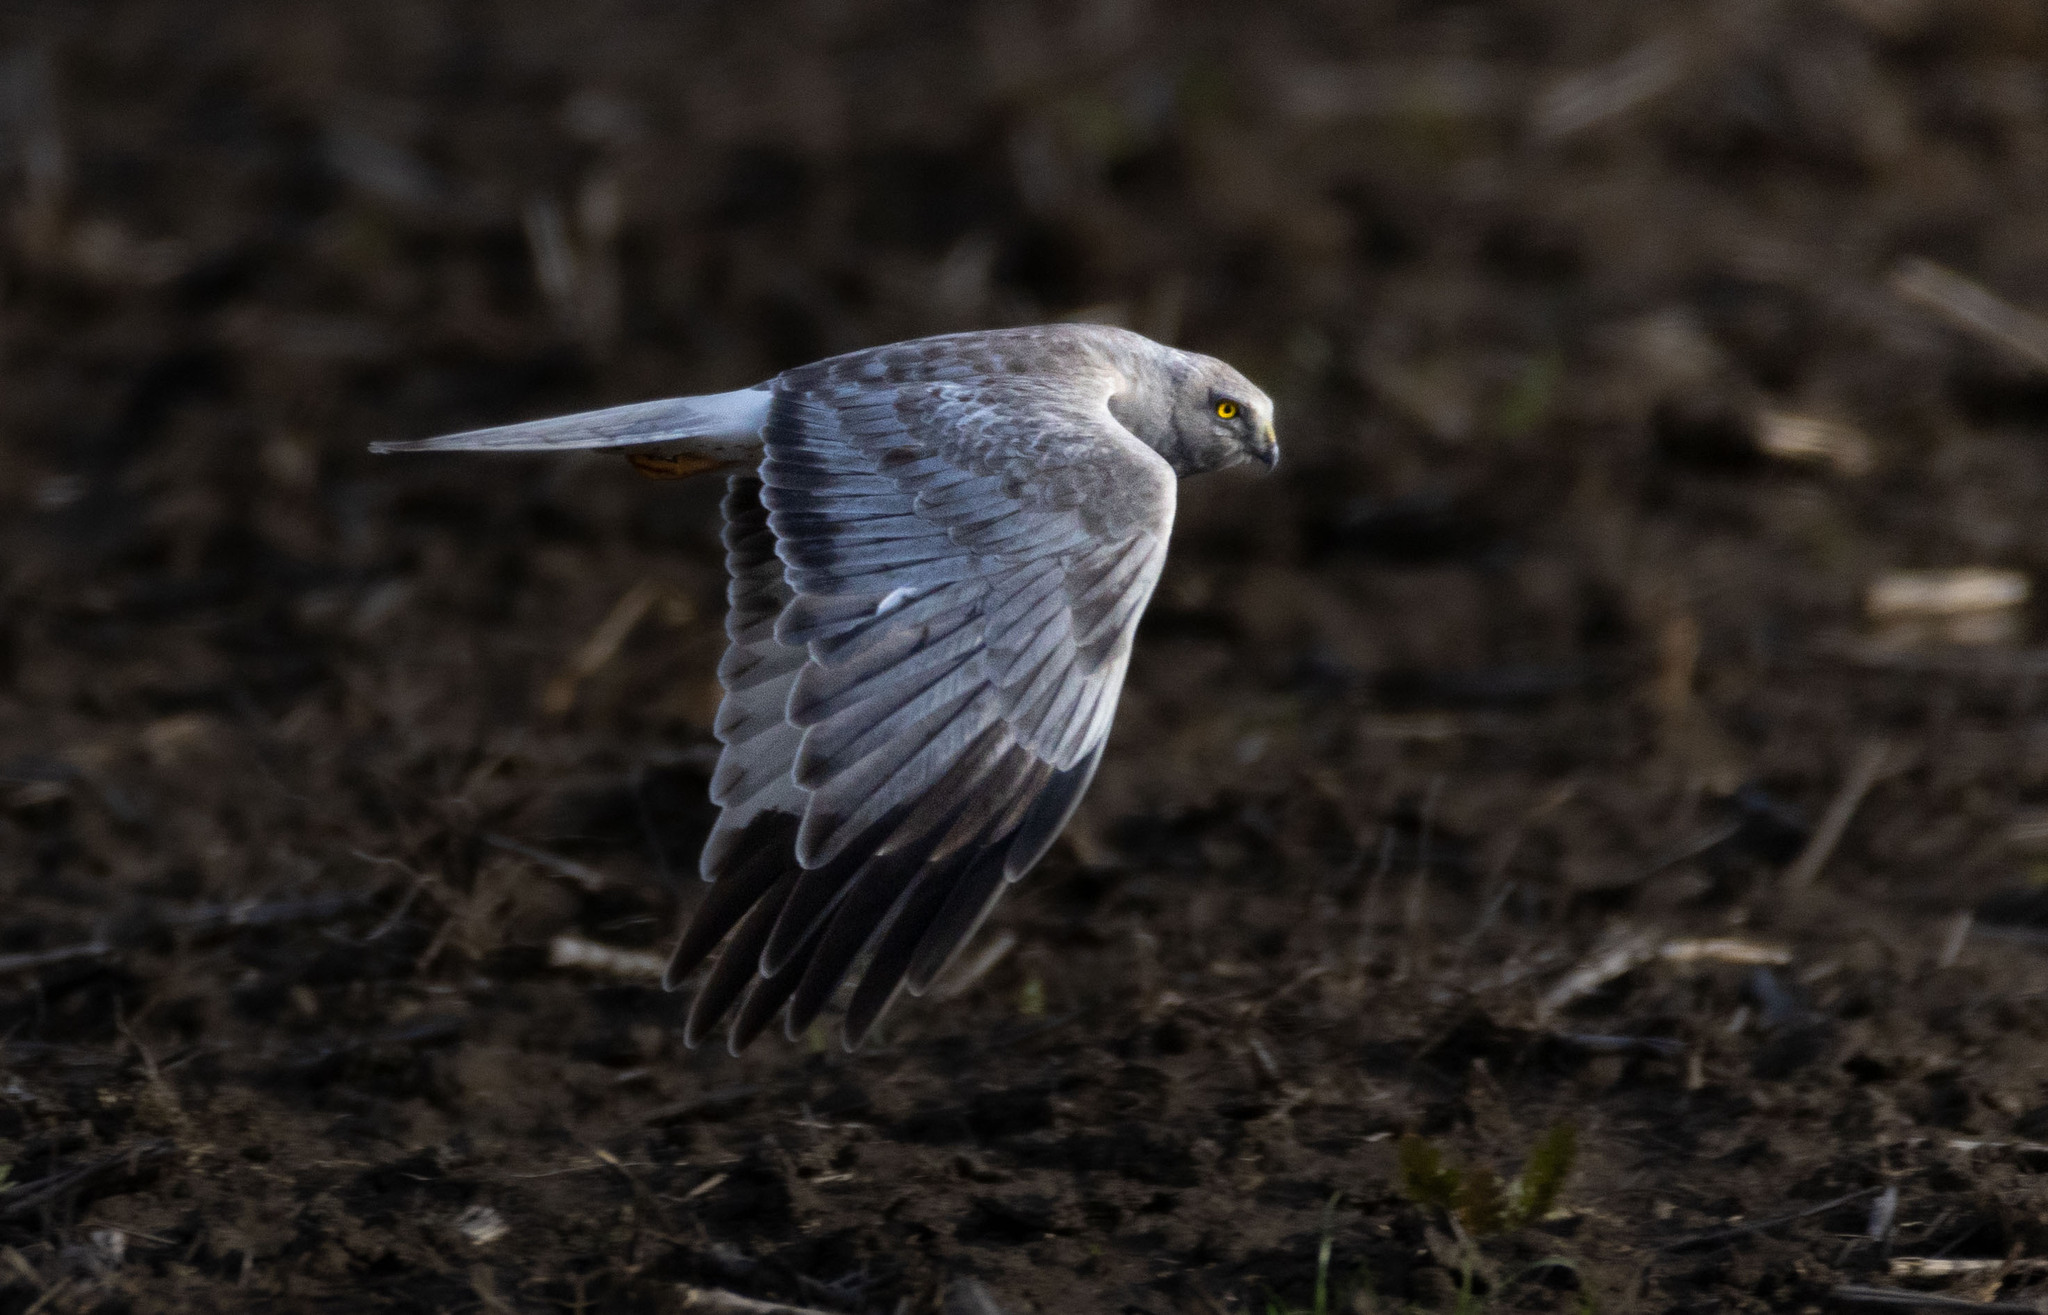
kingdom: Animalia
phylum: Chordata
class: Aves
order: Accipitriformes
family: Accipitridae
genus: Circus
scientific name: Circus cyaneus
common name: Hen harrier
